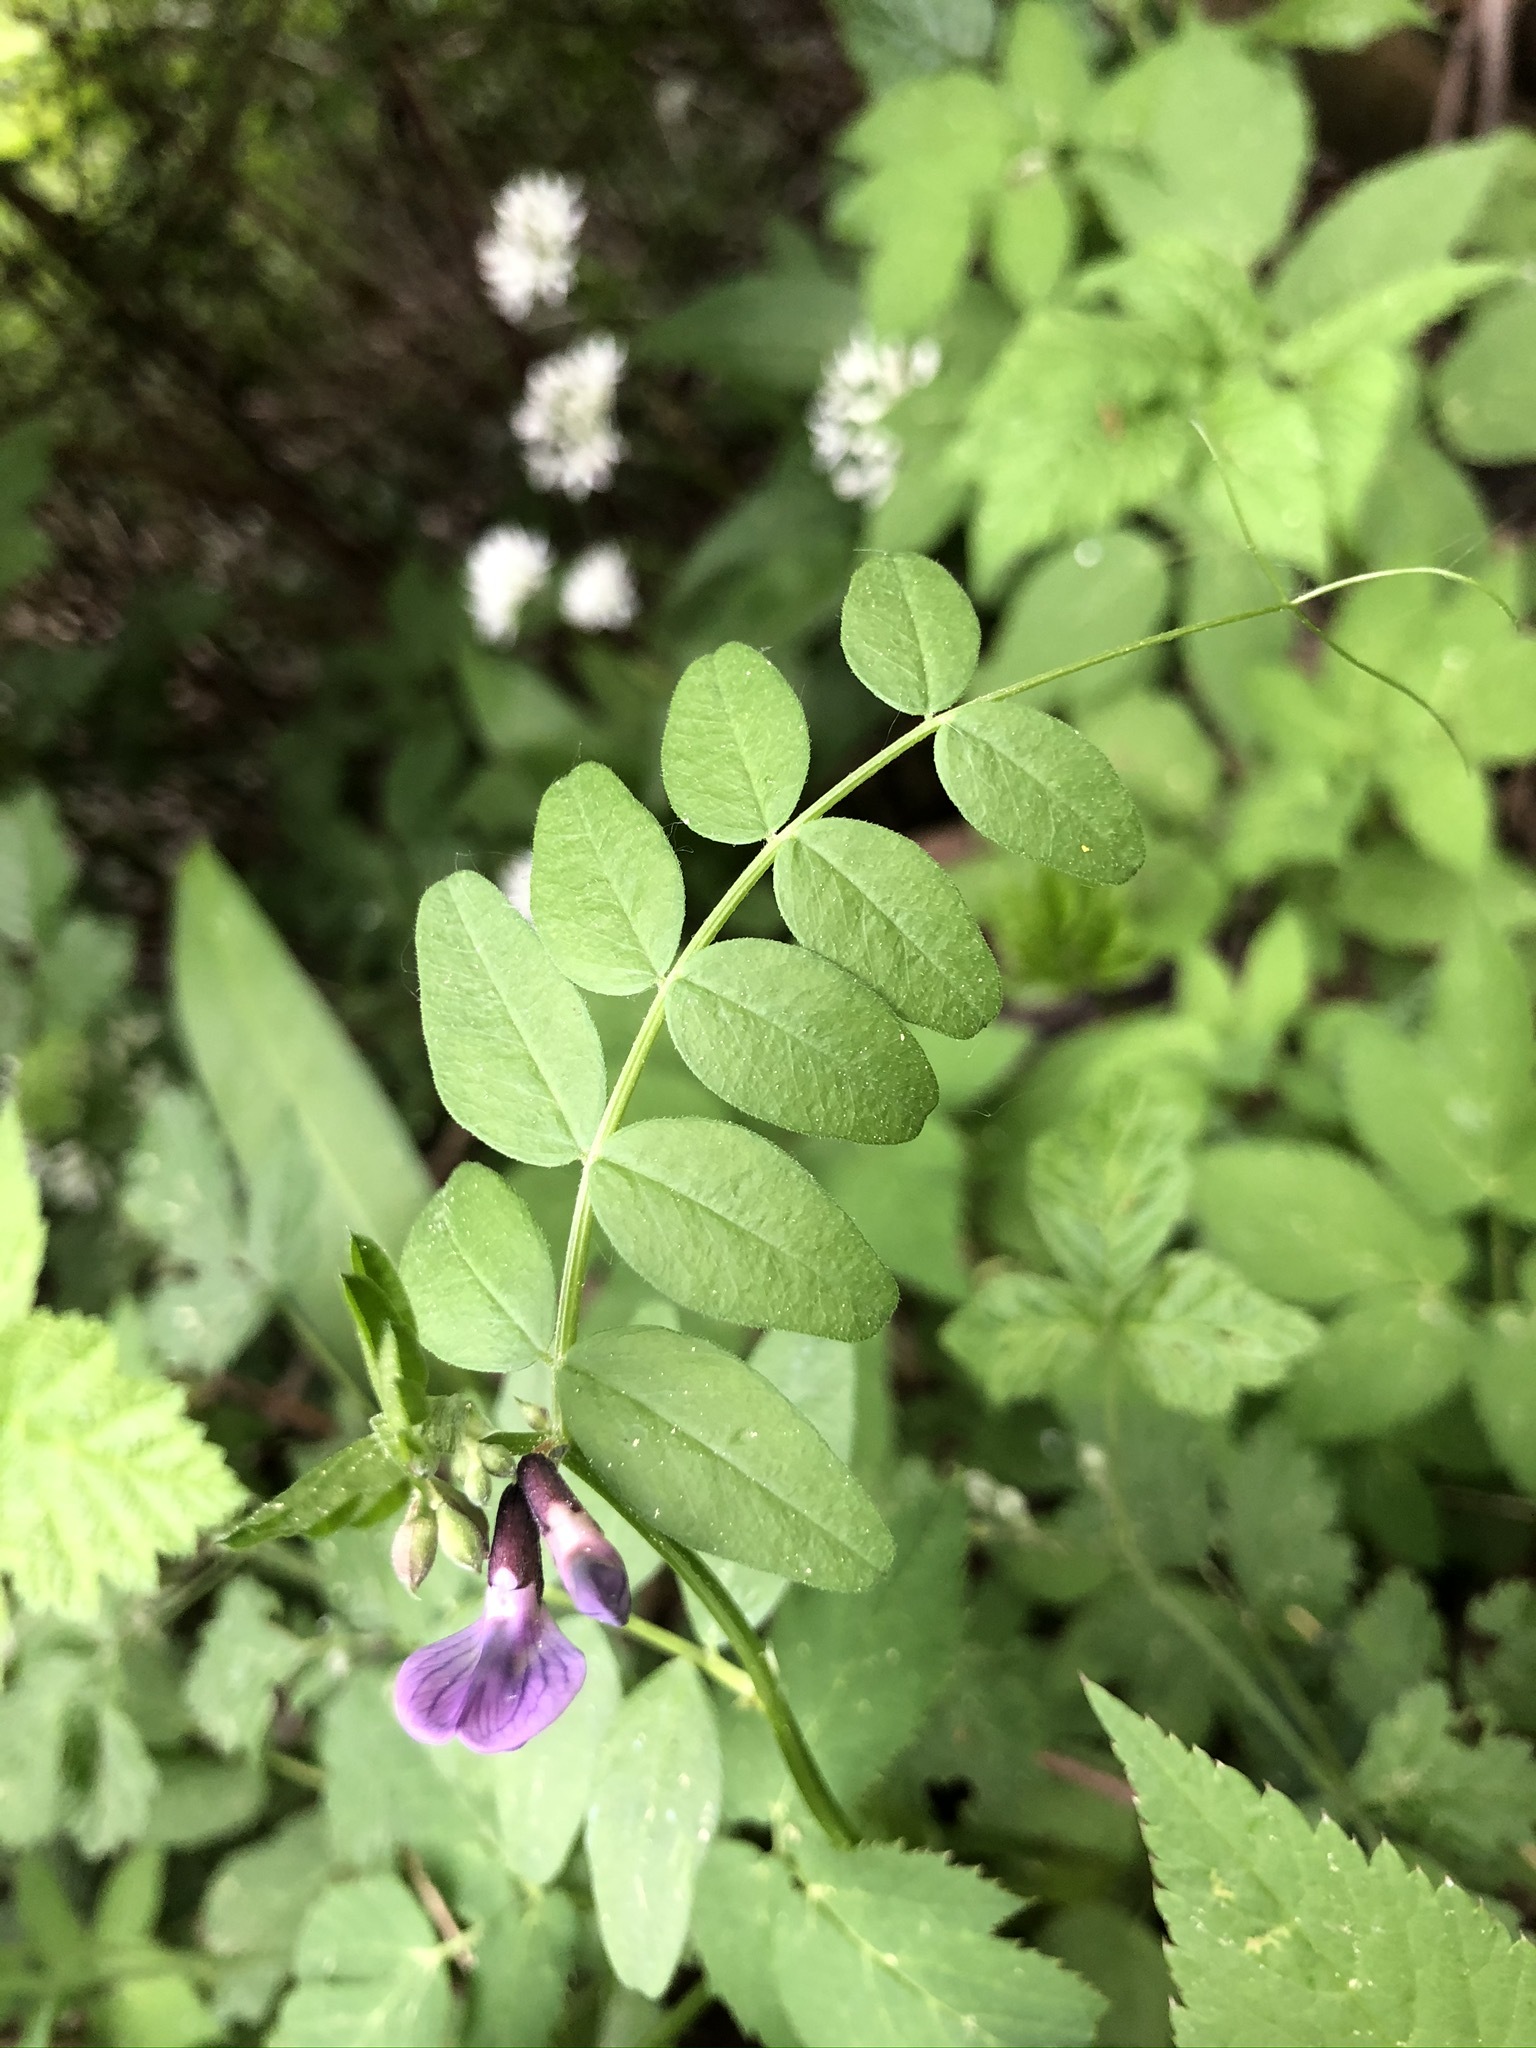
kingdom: Plantae
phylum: Tracheophyta
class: Magnoliopsida
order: Fabales
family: Fabaceae
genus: Vicia
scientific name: Vicia sepium
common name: Bush vetch
